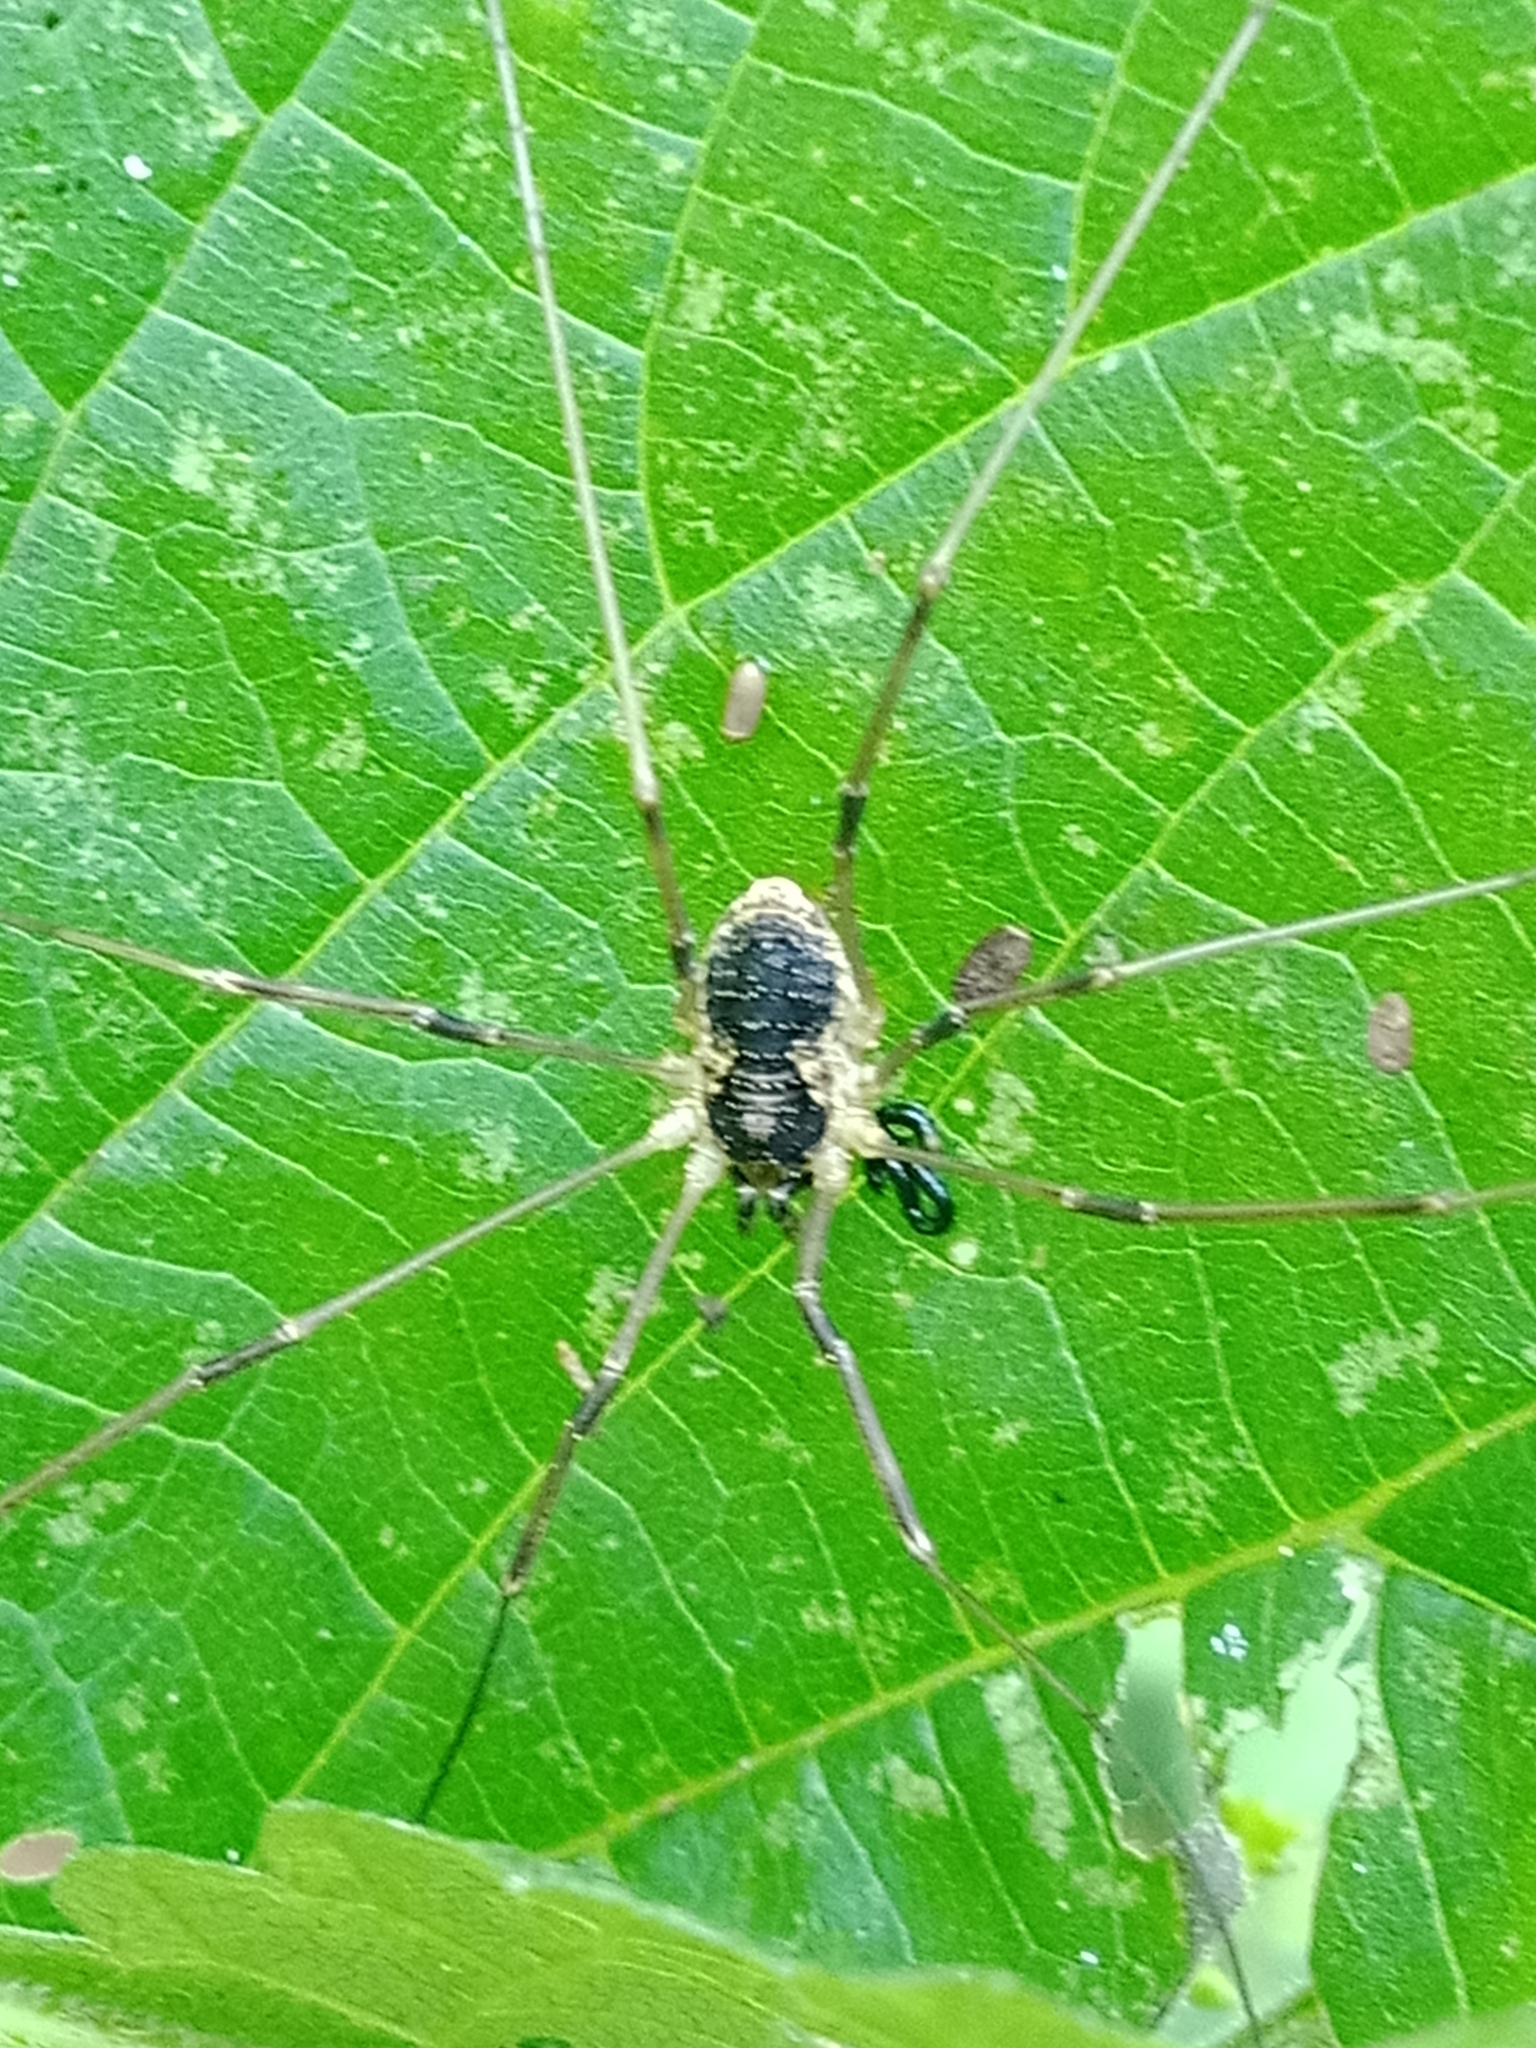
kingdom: Animalia
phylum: Arthropoda
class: Arachnida
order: Opiliones
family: Phalangiidae
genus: Mitopus
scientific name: Mitopus morio
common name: Saddleback harvestman
